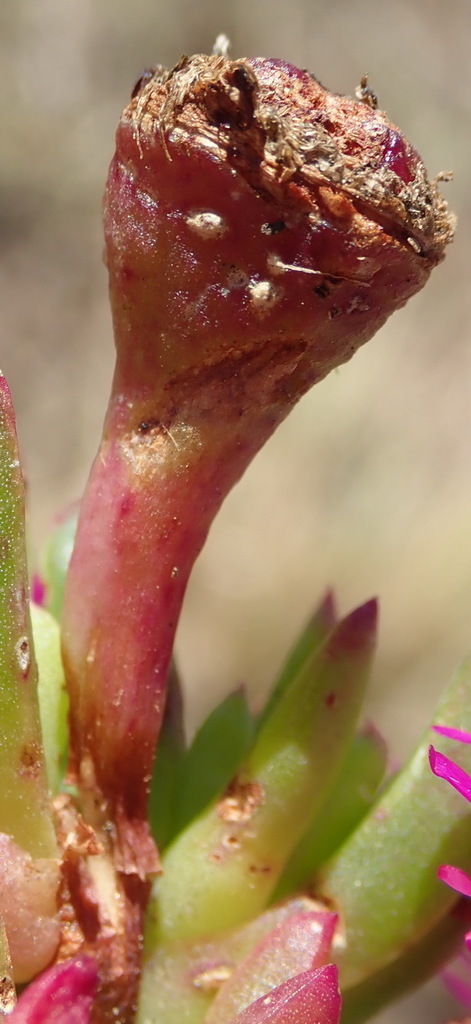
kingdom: Plantae
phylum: Tracheophyta
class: Magnoliopsida
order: Caryophyllales
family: Aizoaceae
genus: Ruschia
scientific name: Ruschia duthiae
